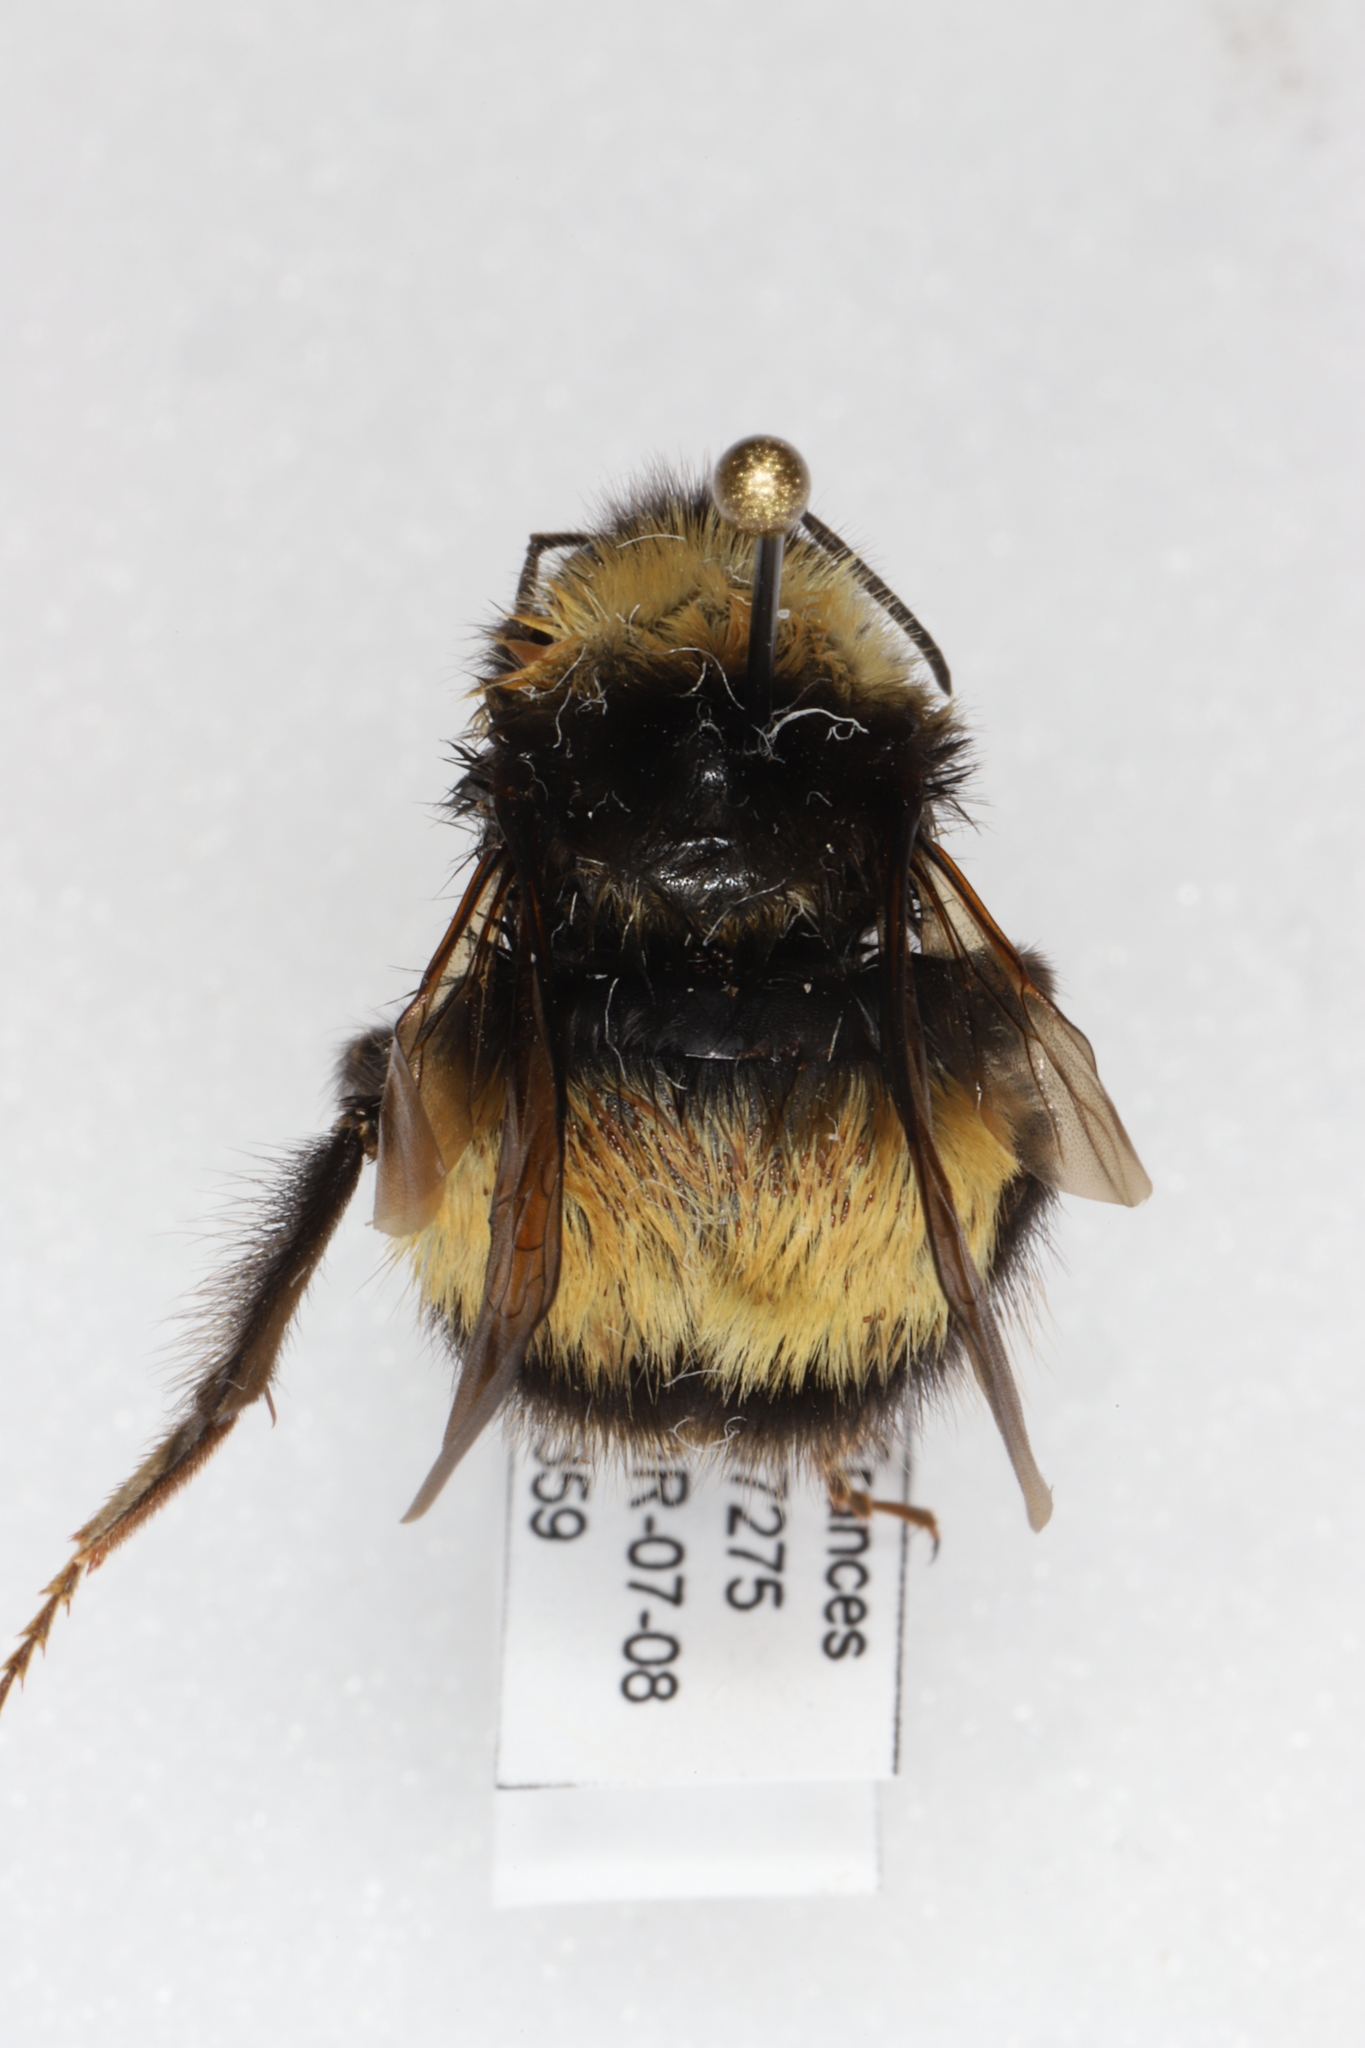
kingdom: Animalia
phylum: Arthropoda
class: Insecta
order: Hymenoptera
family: Apidae
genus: Bombus
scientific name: Bombus terricola
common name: Yellow-banded bumble bee
